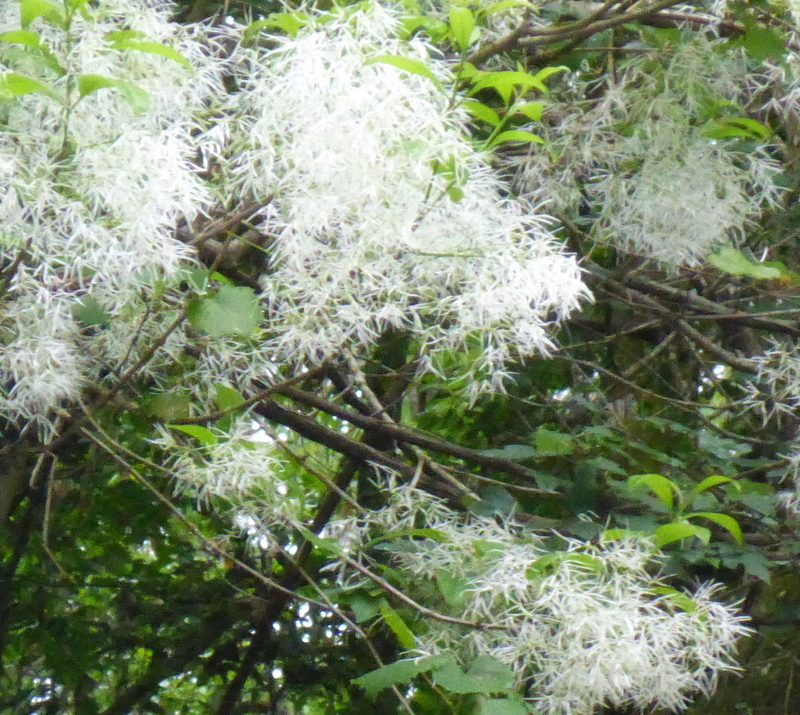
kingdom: Plantae
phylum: Tracheophyta
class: Magnoliopsida
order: Lamiales
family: Oleaceae
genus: Chionanthus
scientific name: Chionanthus virginicus
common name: American fringetree
